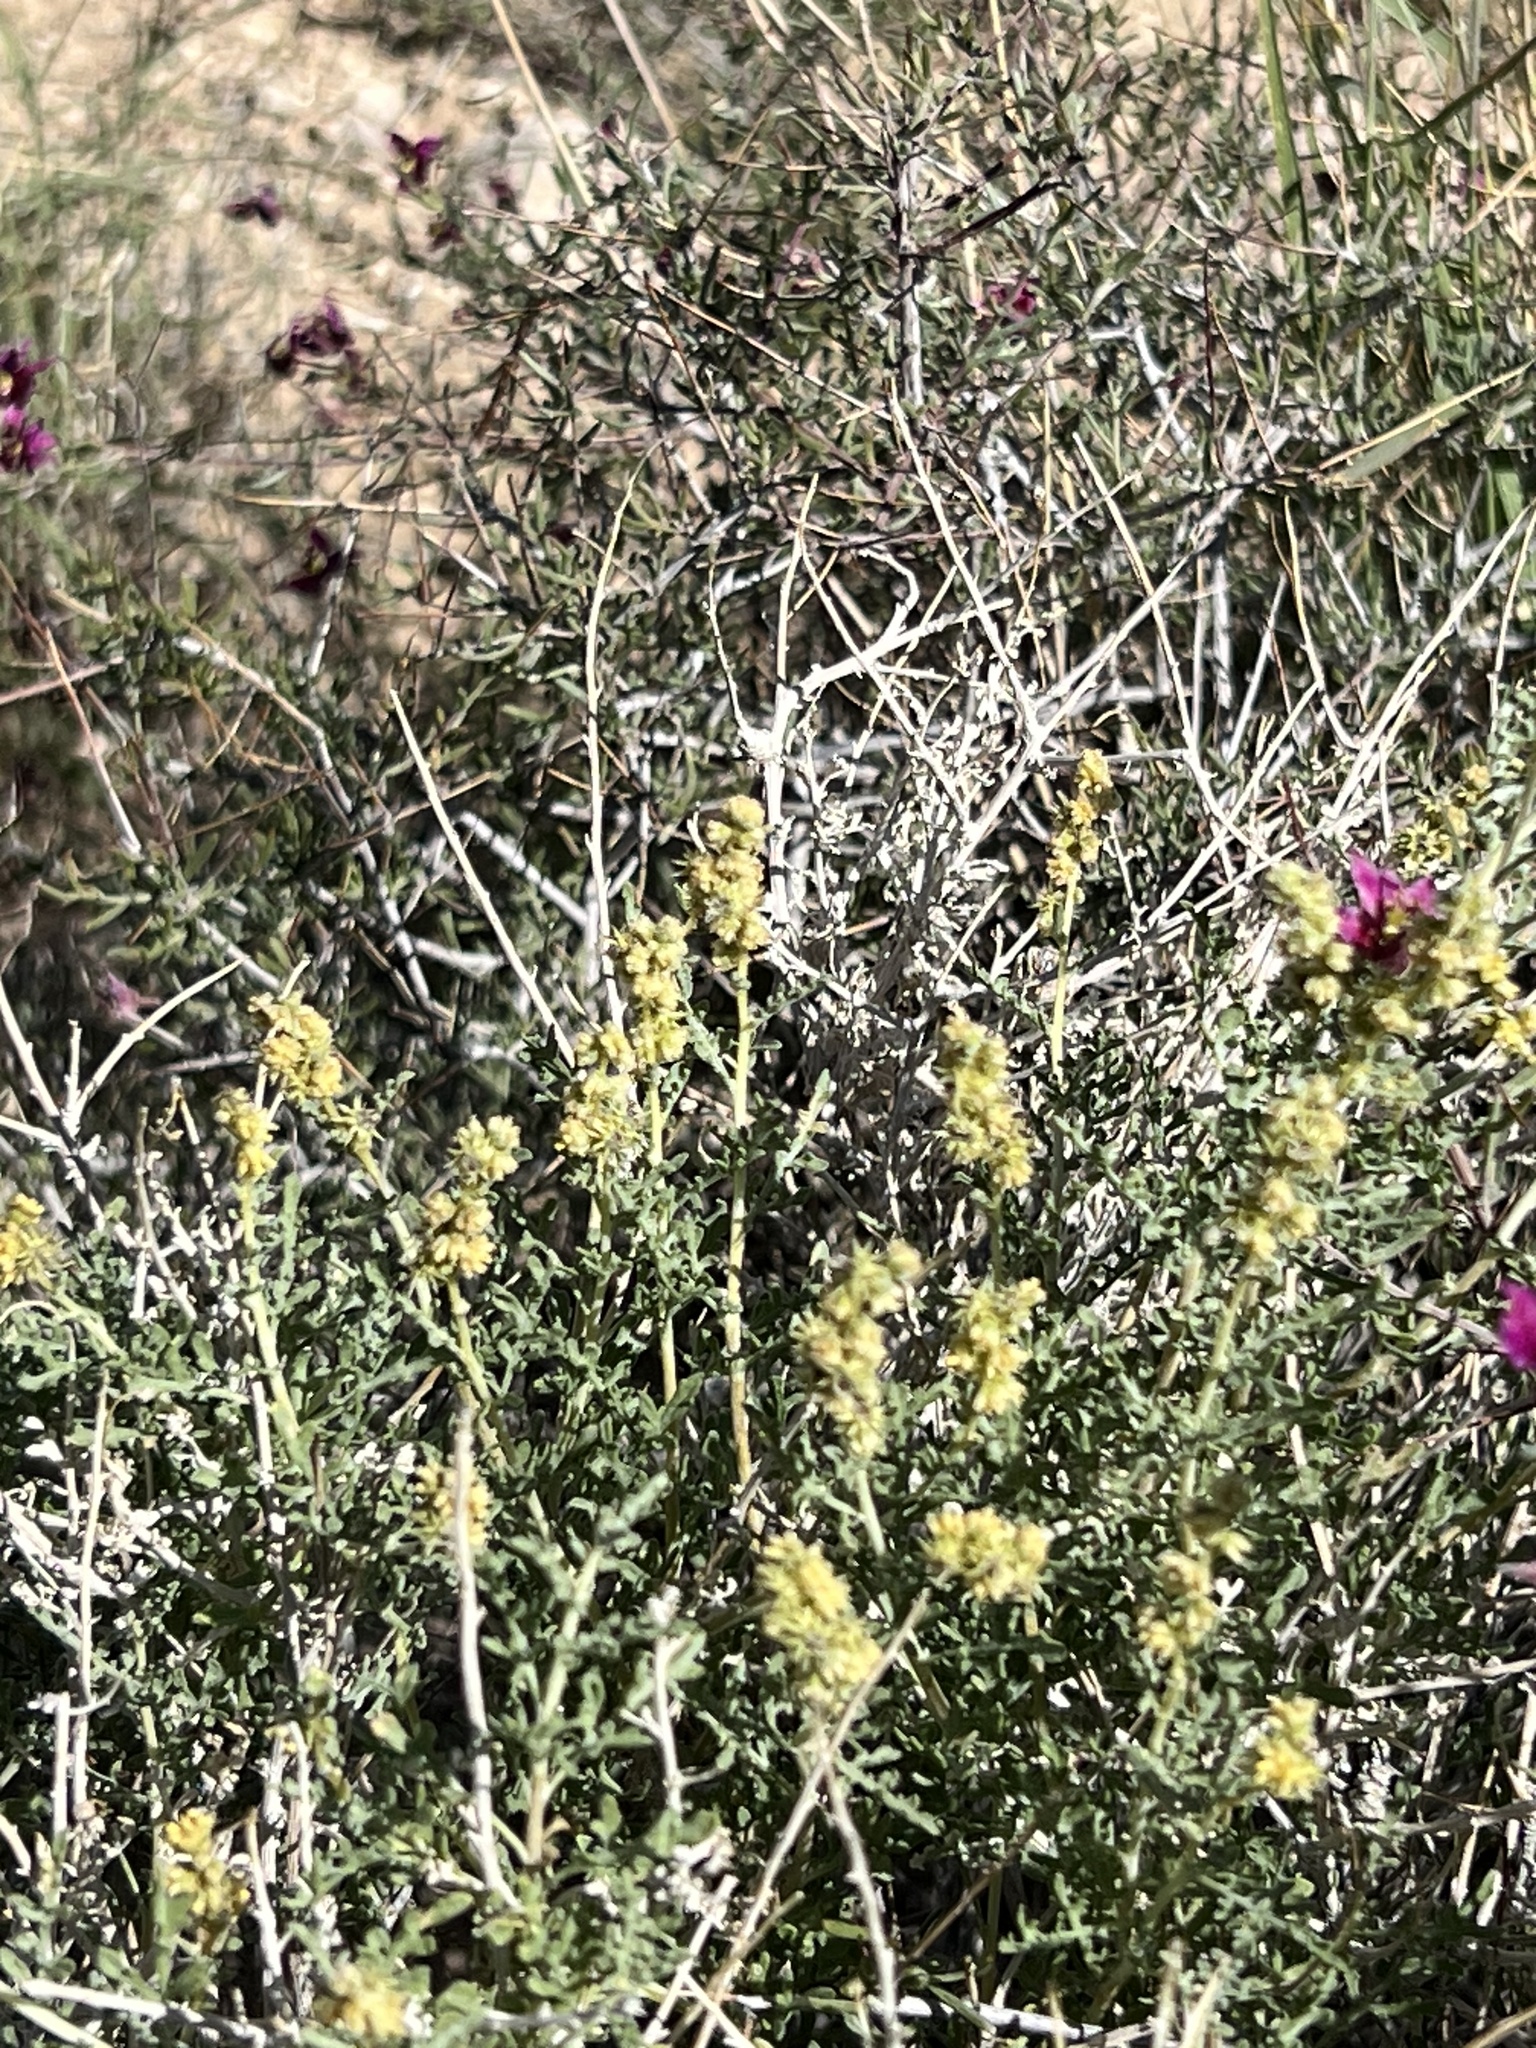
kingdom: Plantae
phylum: Tracheophyta
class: Magnoliopsida
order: Asterales
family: Asteraceae
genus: Ambrosia
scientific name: Ambrosia dumosa
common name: Bur-sage
